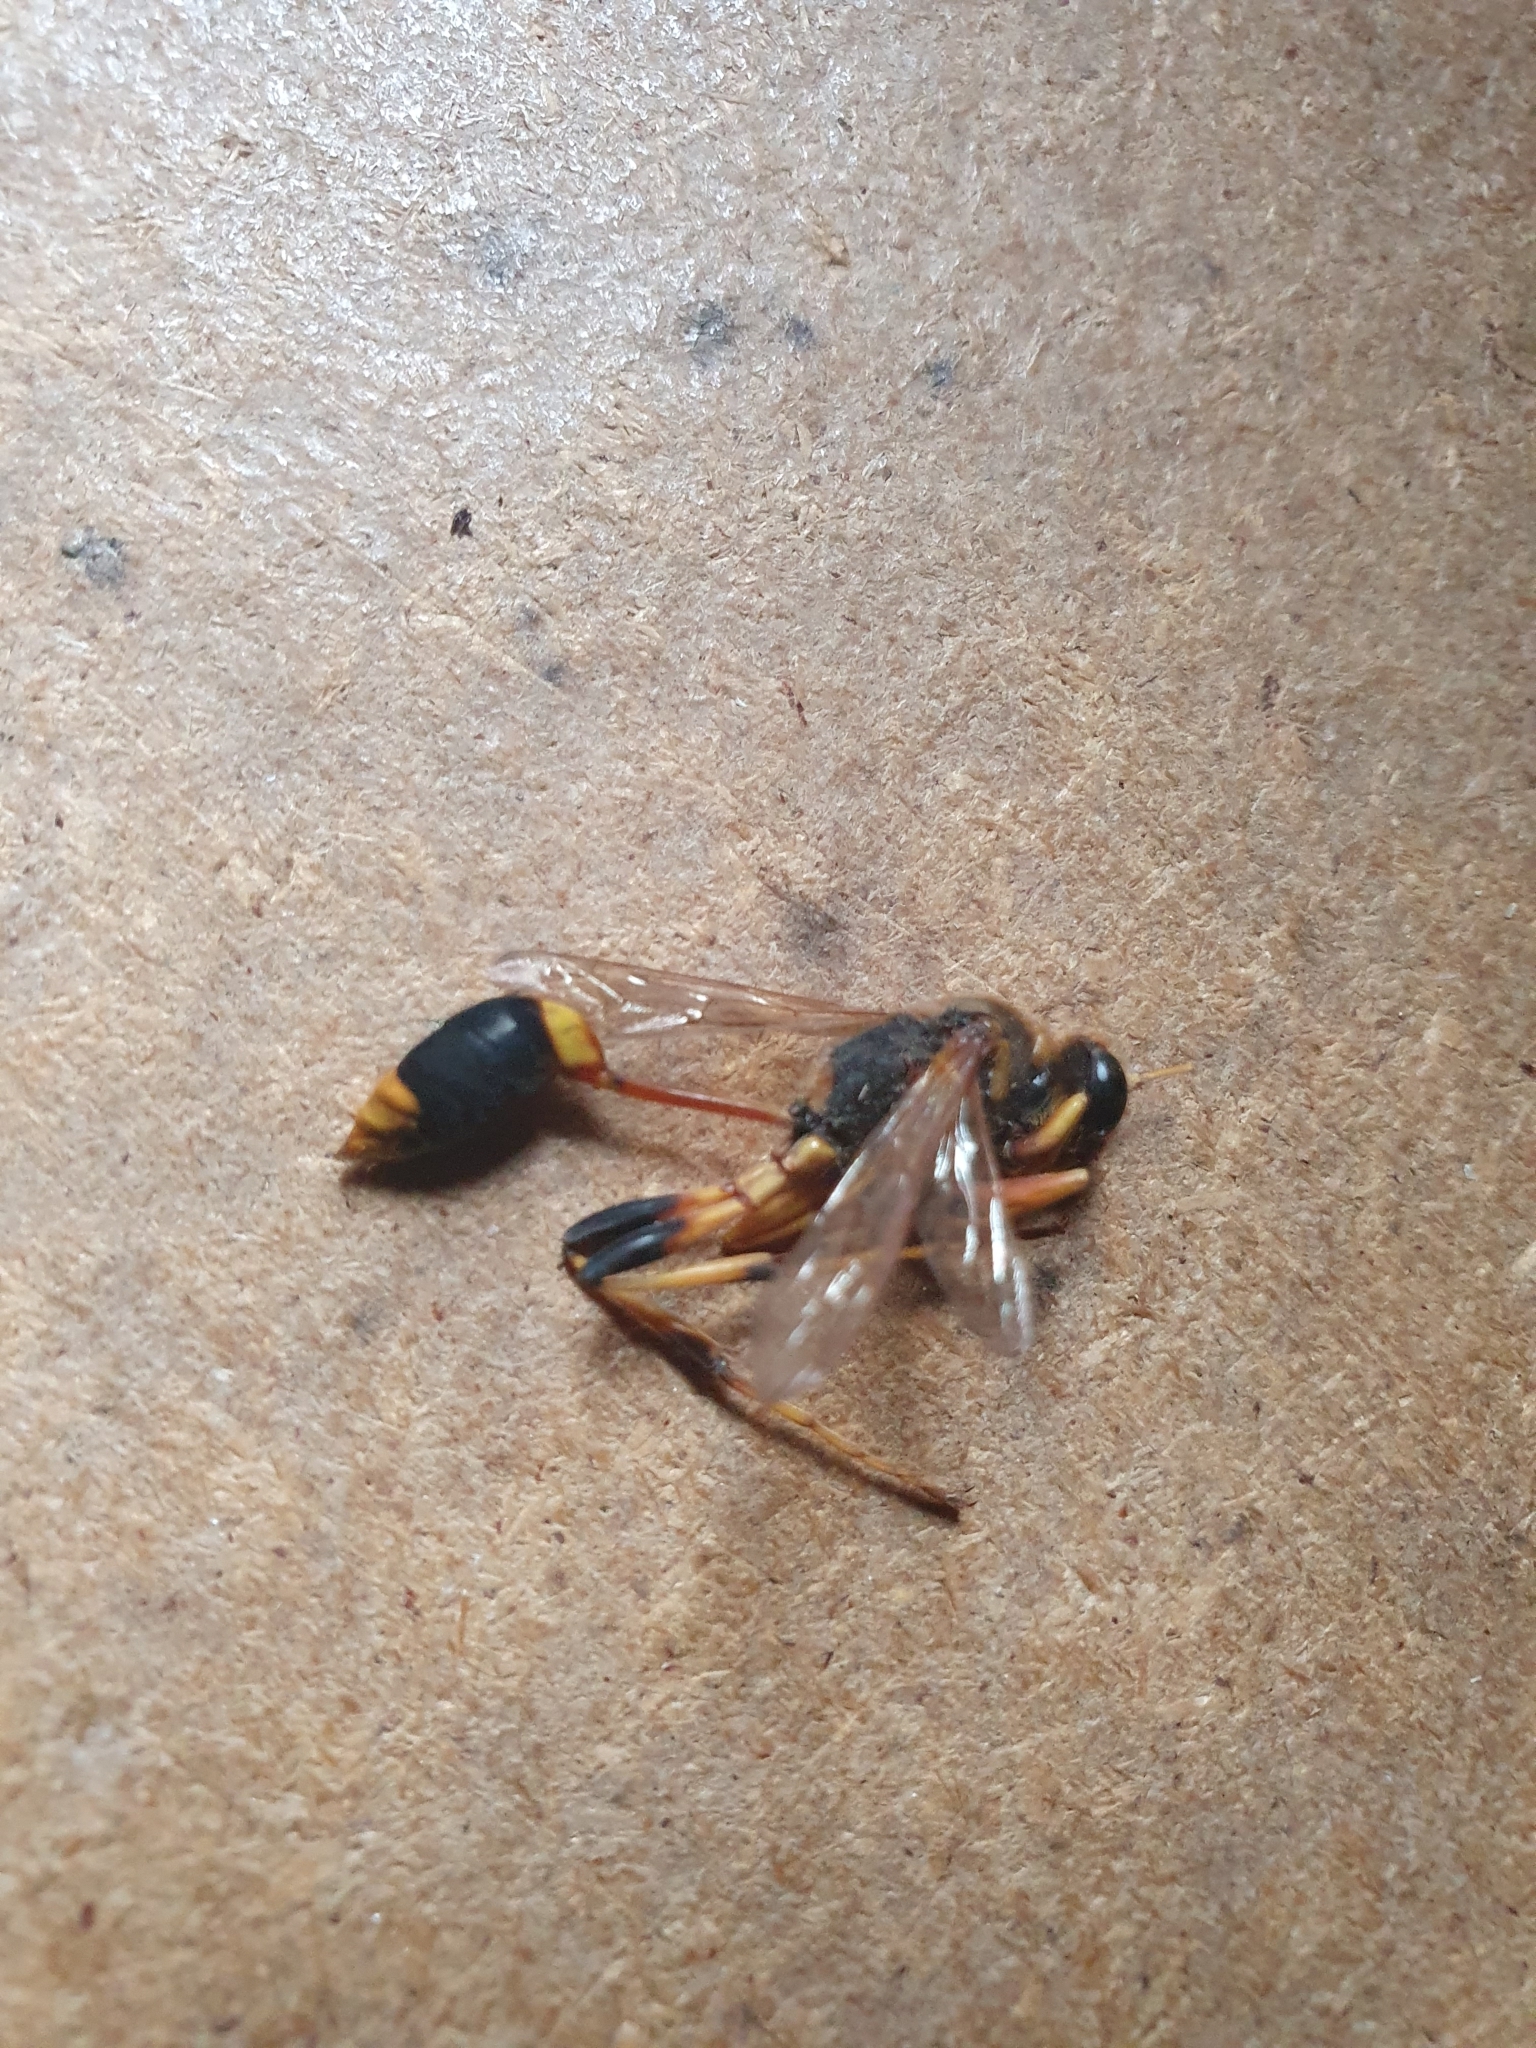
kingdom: Animalia
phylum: Arthropoda
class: Insecta
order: Hymenoptera
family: Sphecidae
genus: Sceliphron
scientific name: Sceliphron laetum
